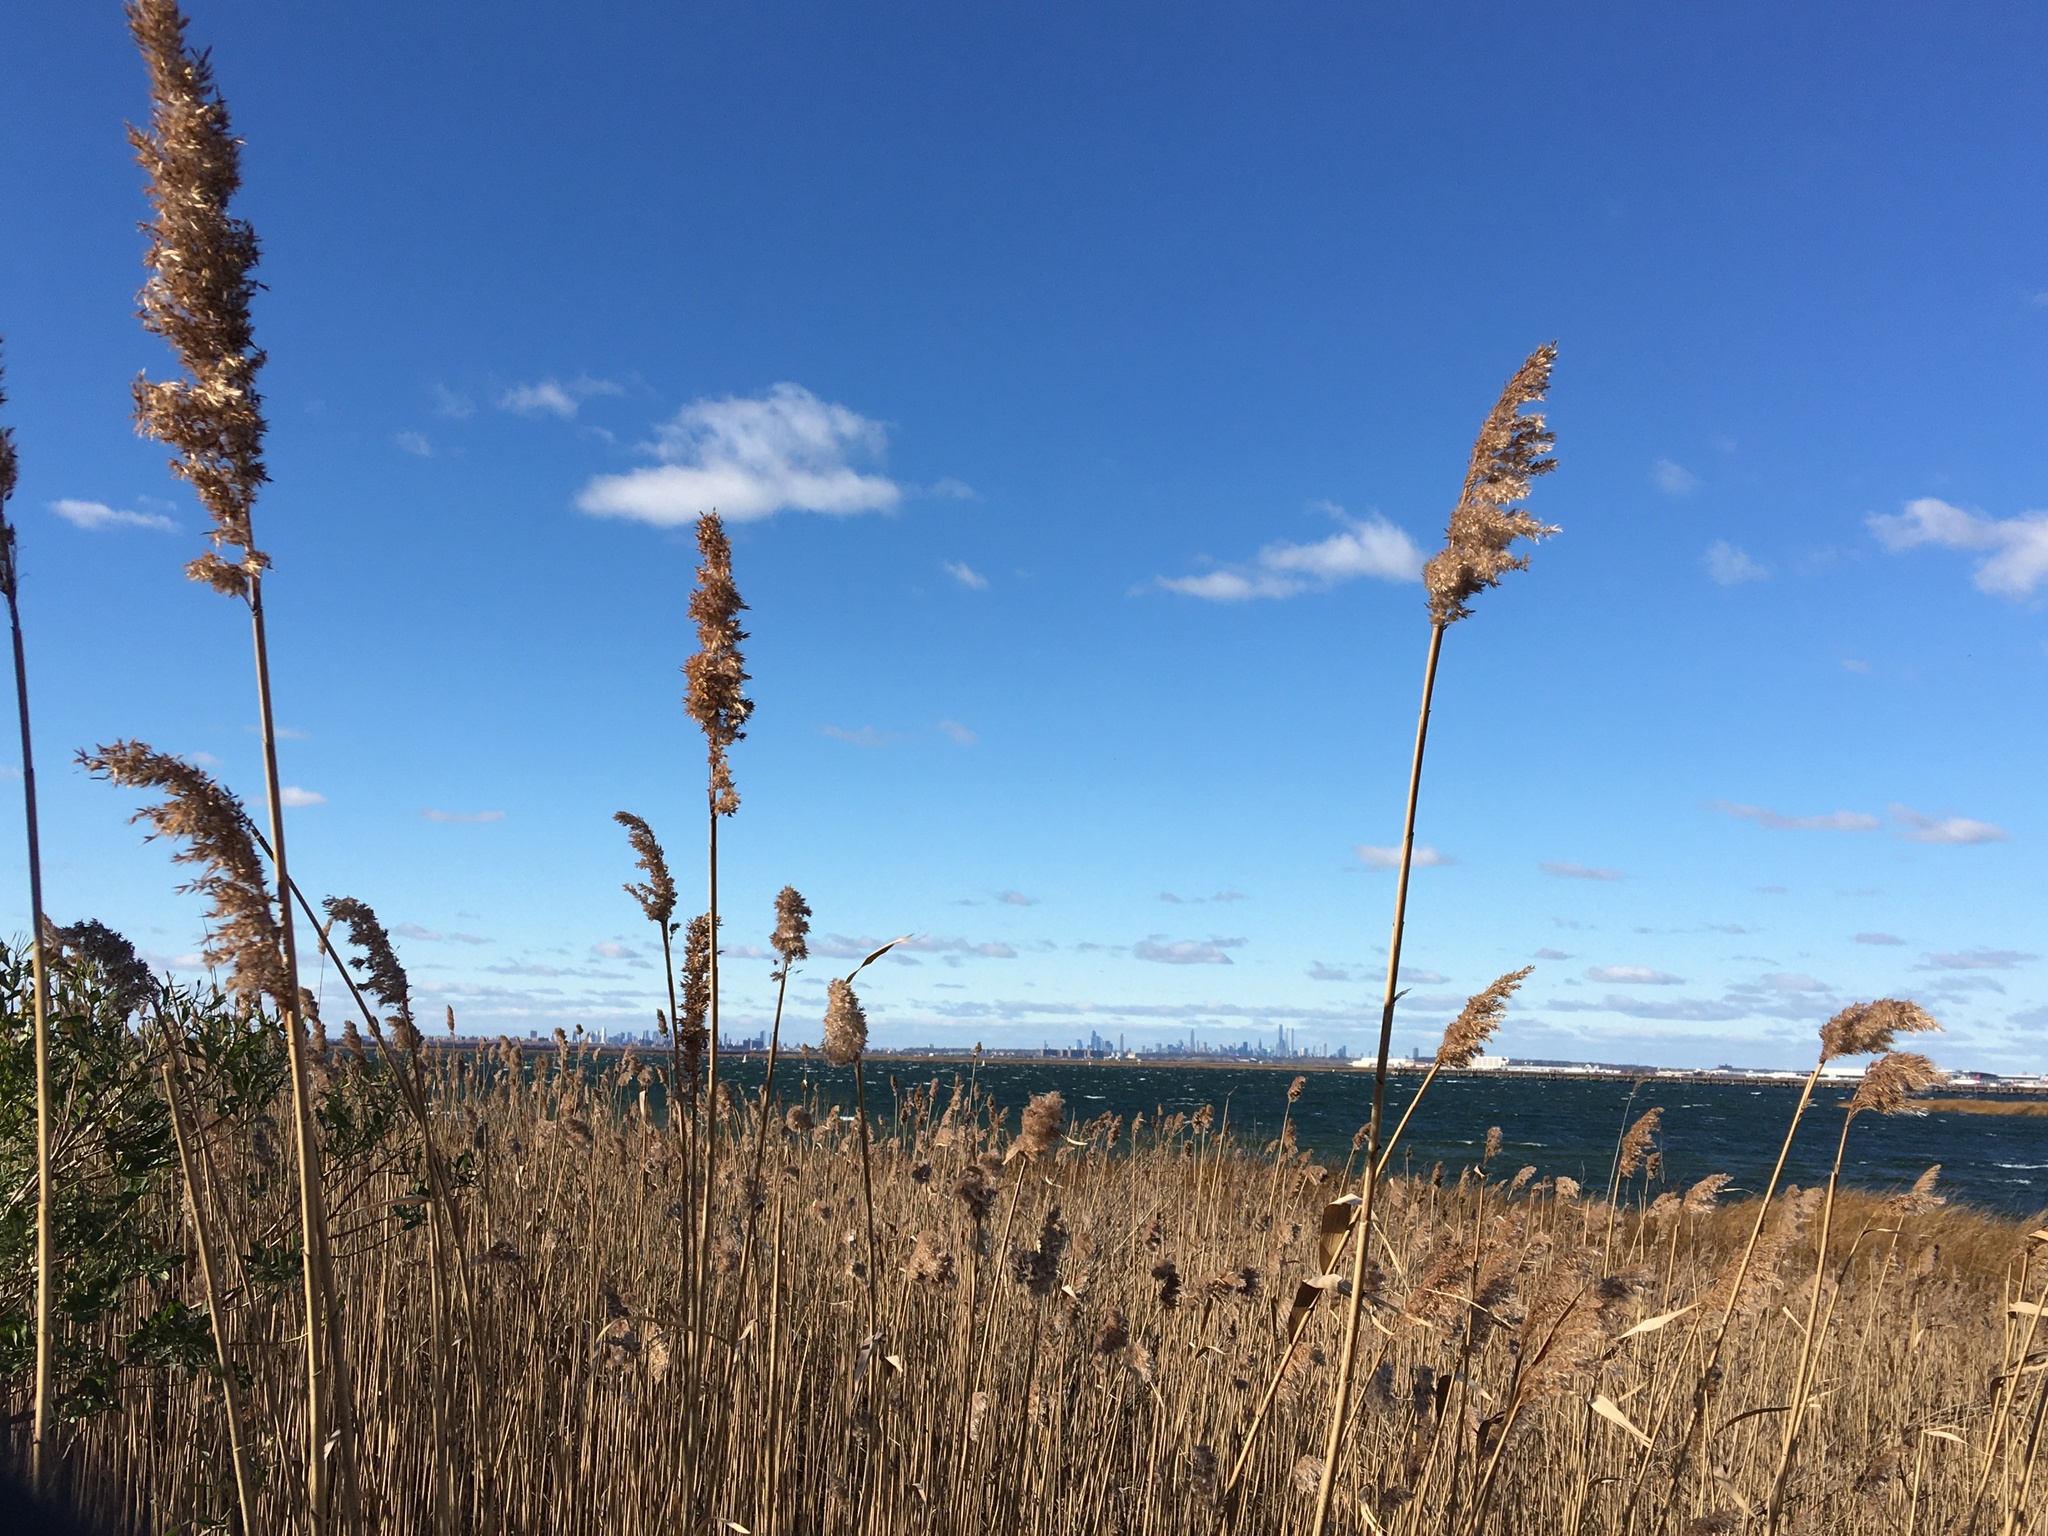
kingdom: Plantae
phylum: Tracheophyta
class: Liliopsida
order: Poales
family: Poaceae
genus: Phragmites
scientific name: Phragmites australis
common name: Common reed
